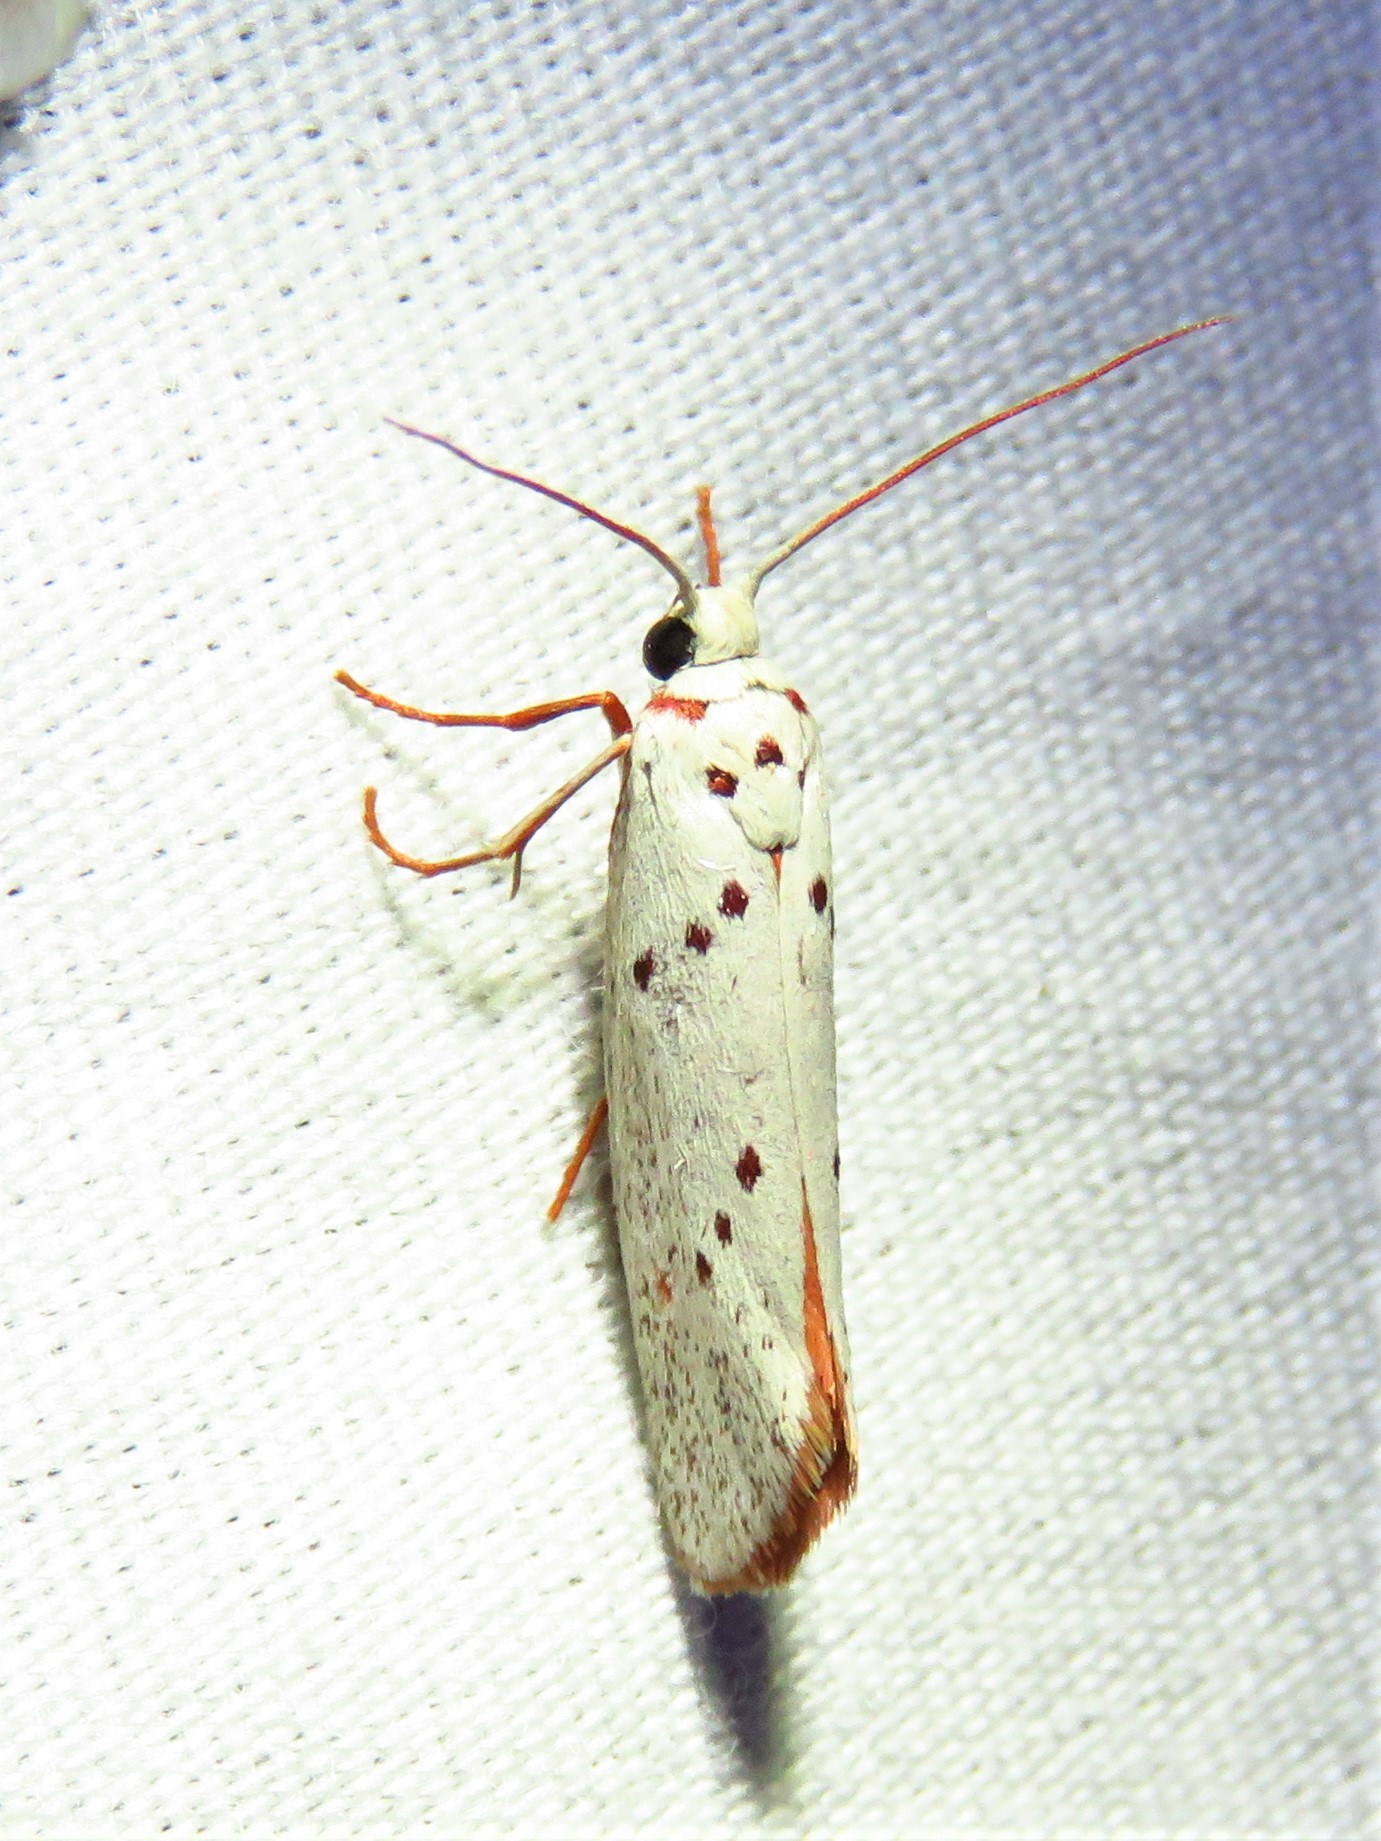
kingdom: Animalia
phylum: Arthropoda
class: Insecta
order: Lepidoptera
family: Lacturidae
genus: Lactura
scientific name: Lactura
